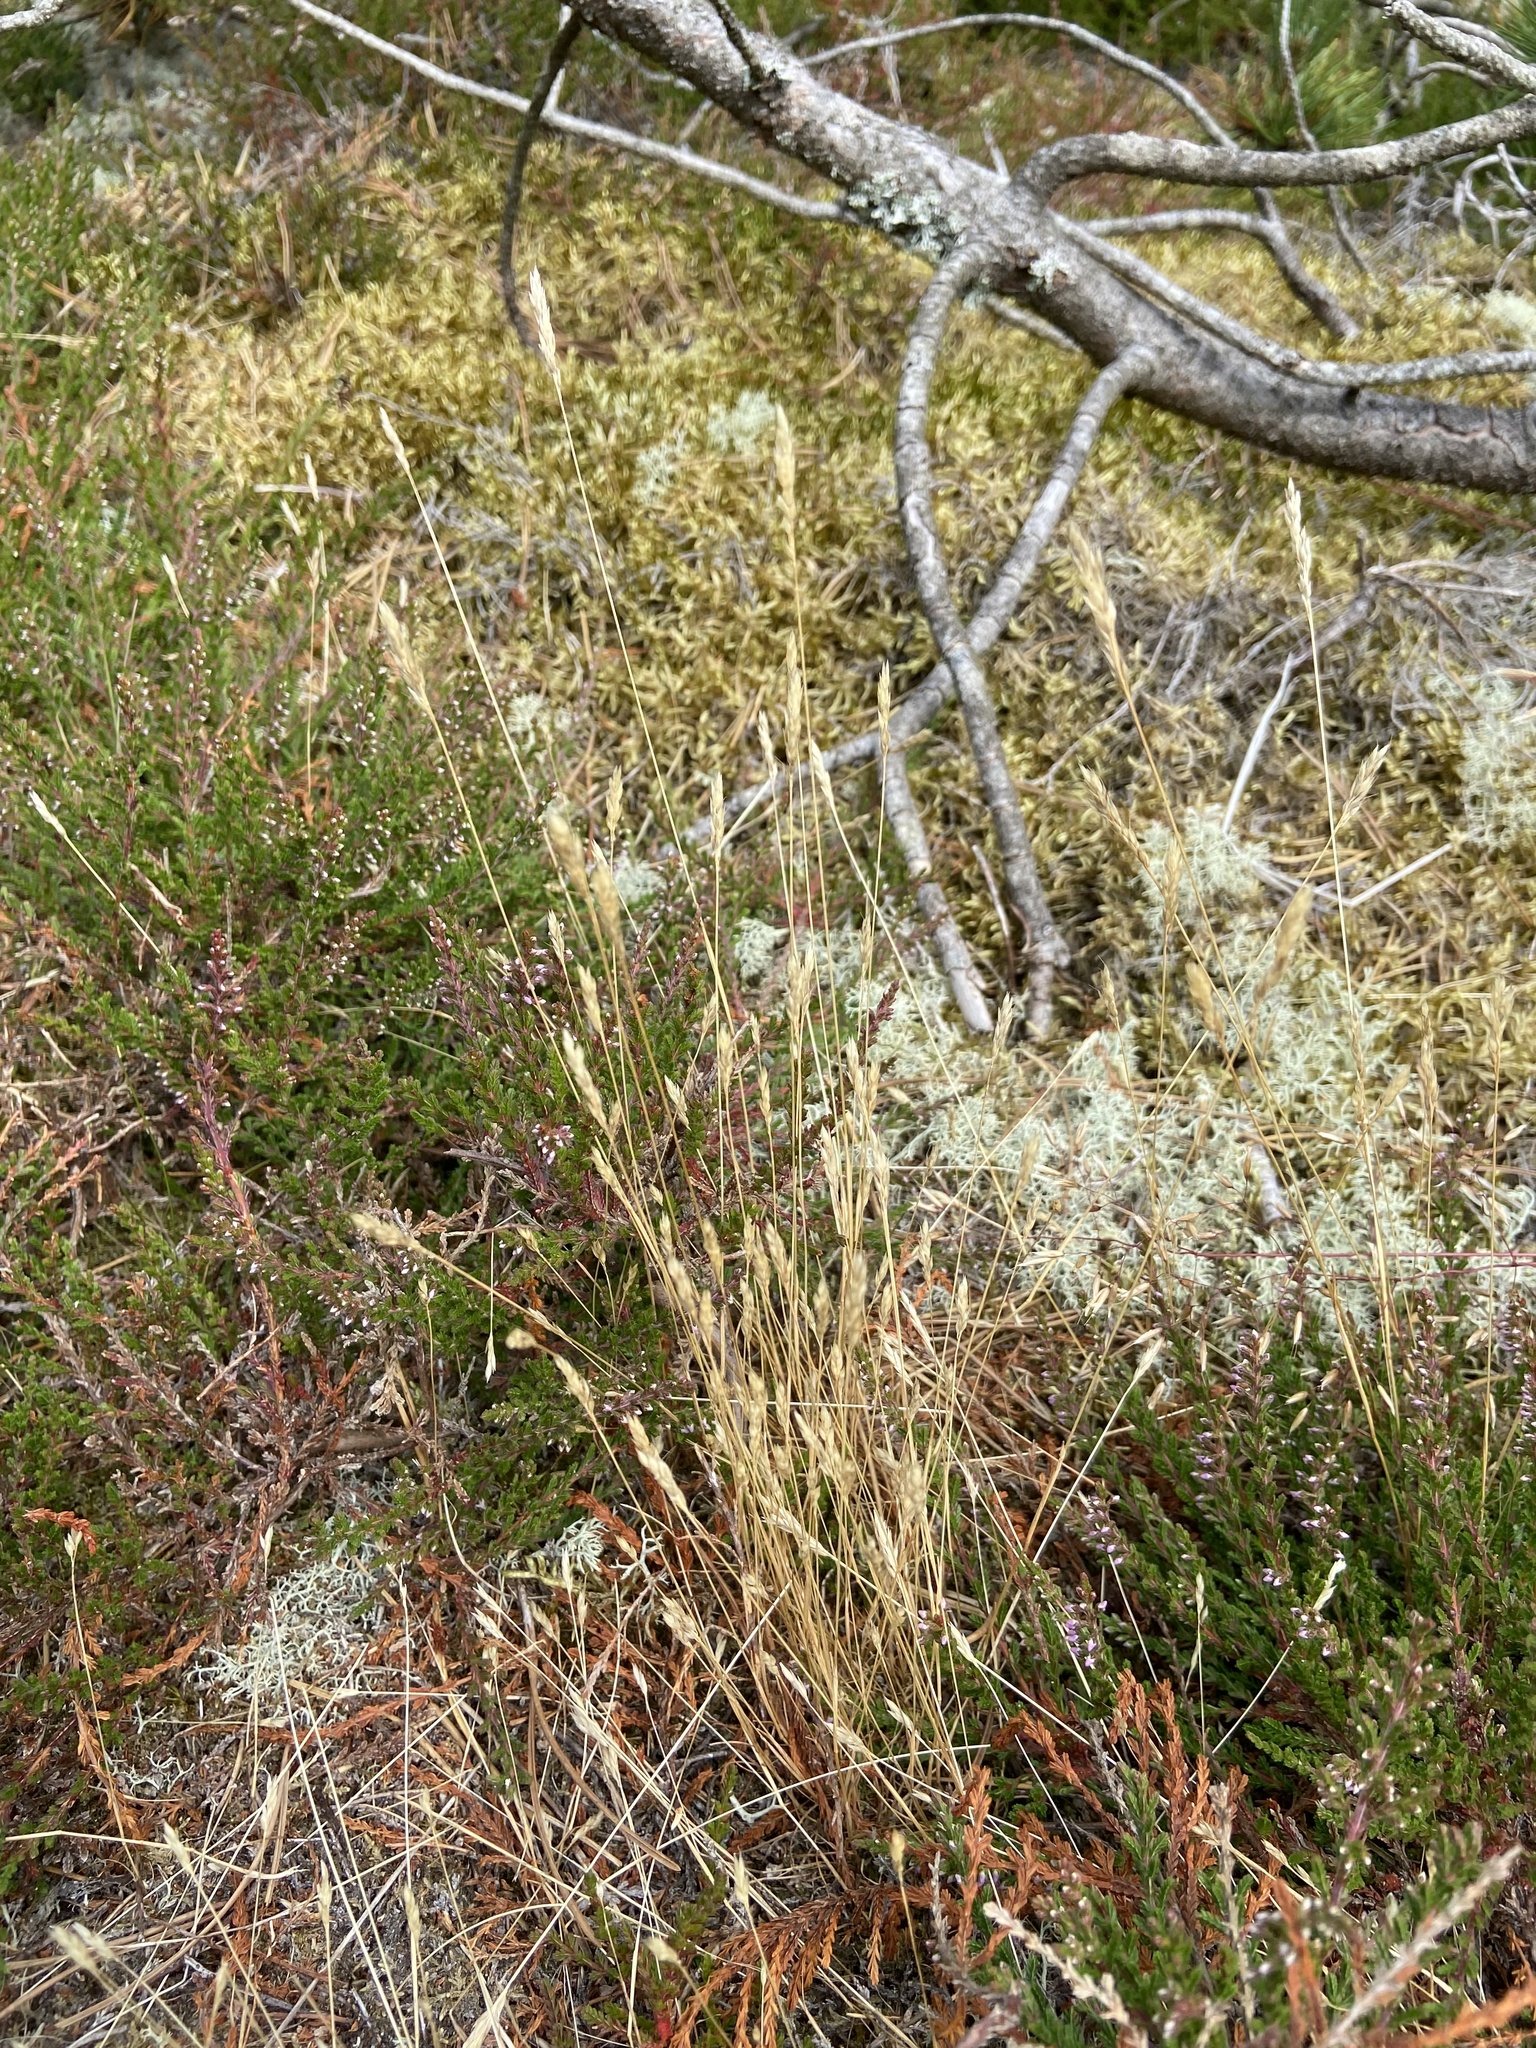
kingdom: Plantae
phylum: Tracheophyta
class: Liliopsida
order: Poales
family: Poaceae
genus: Aira
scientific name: Aira praecox
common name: Early hair-grass
